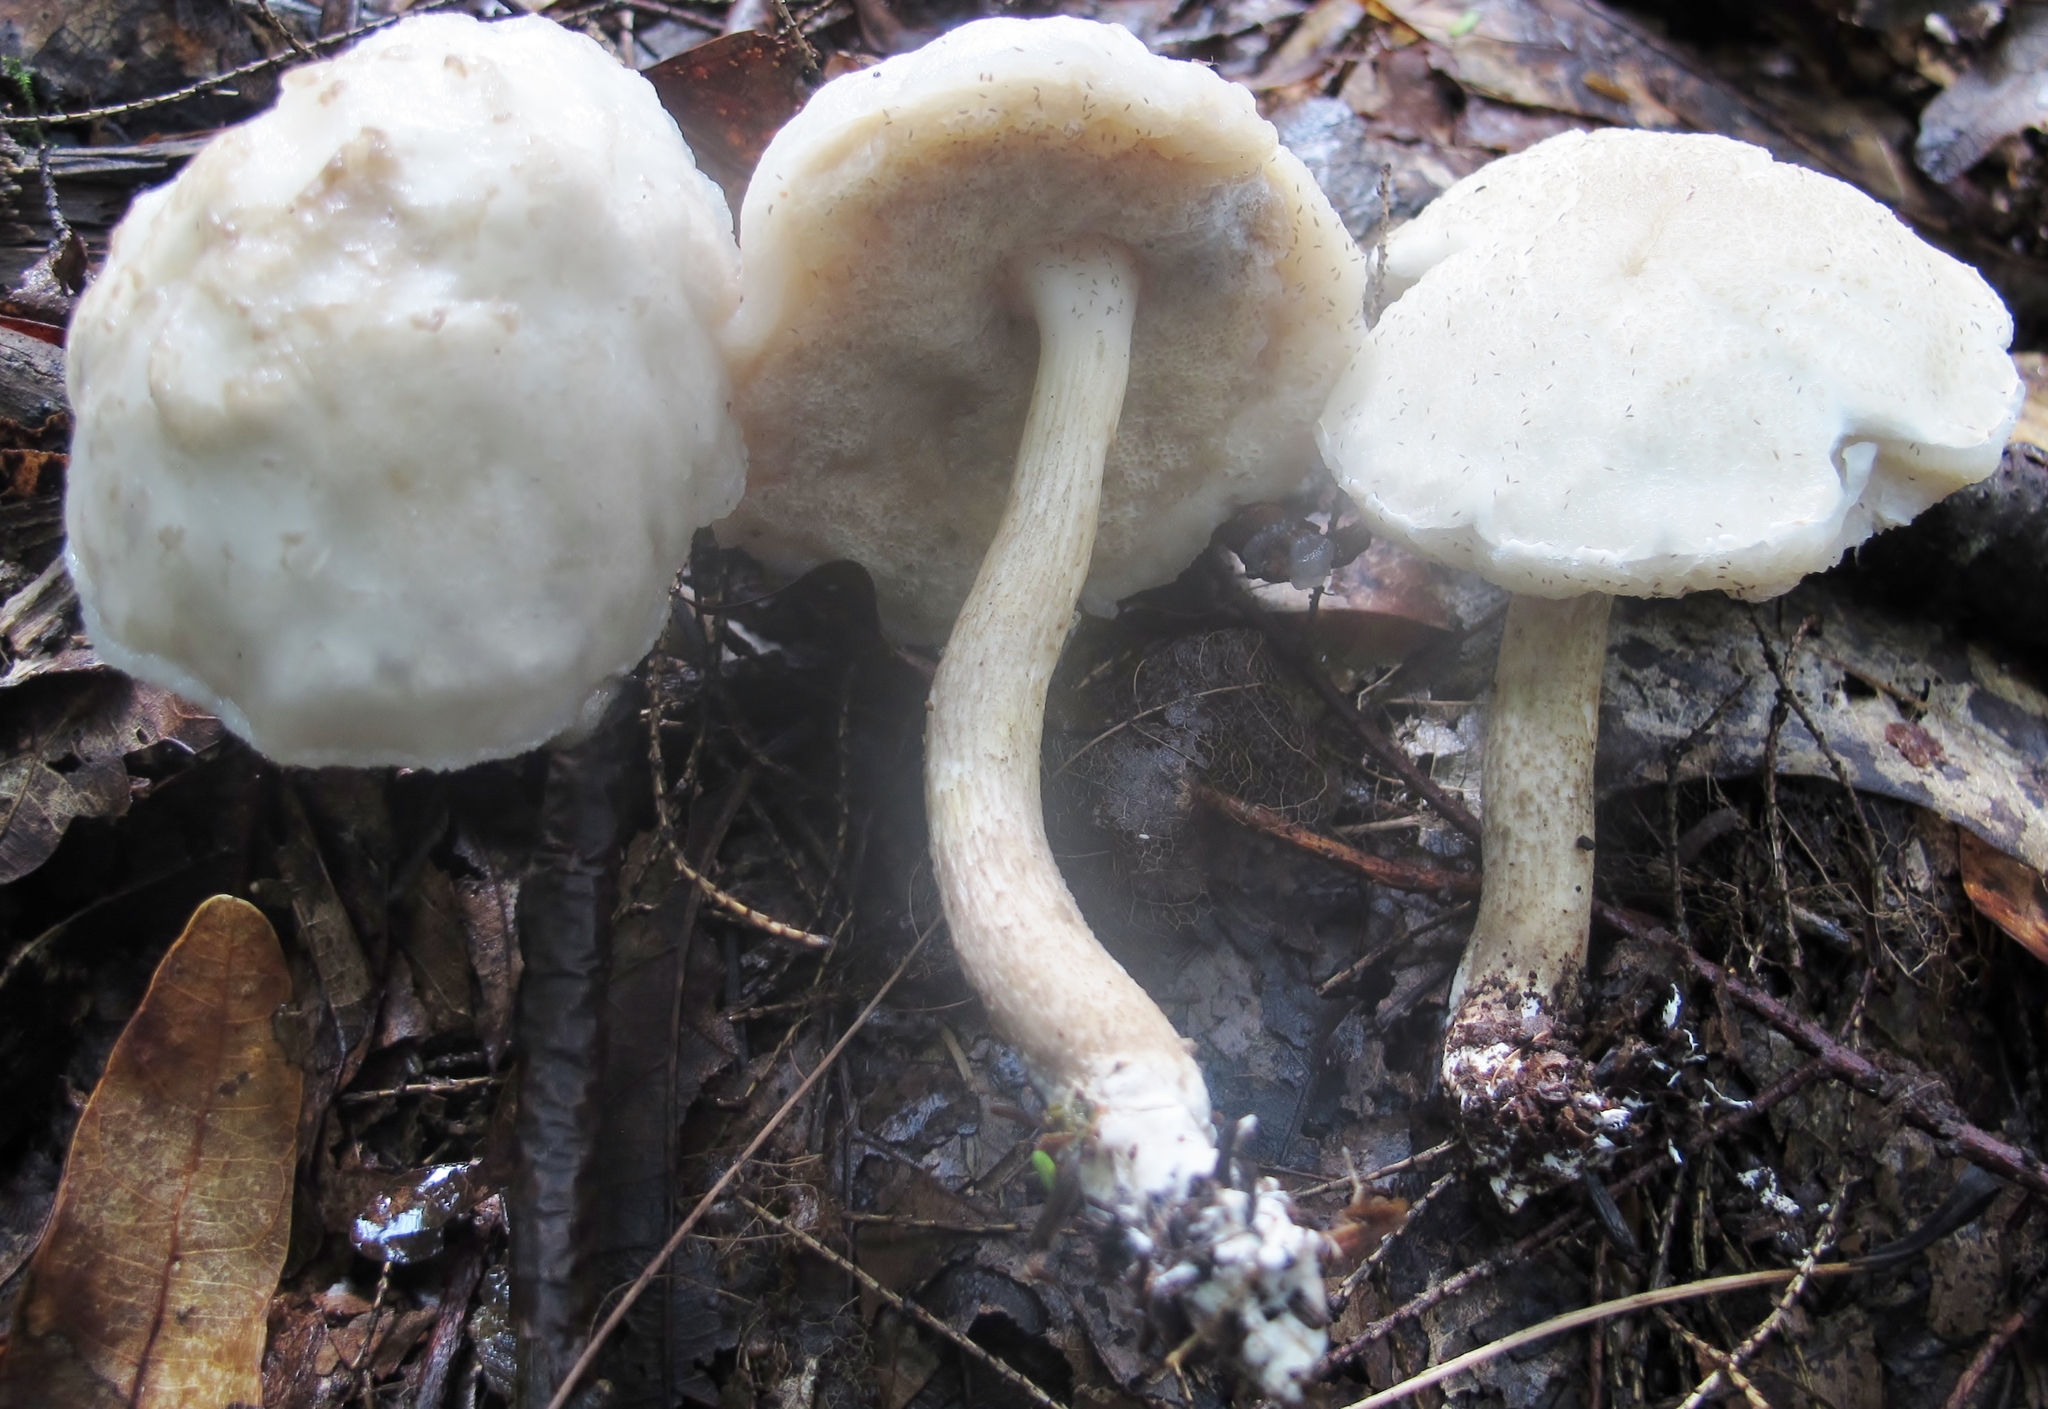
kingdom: Fungi
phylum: Basidiomycota
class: Agaricomycetes
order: Boletales
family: Boletaceae
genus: Leccinellum
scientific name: Leccinellum albellum
